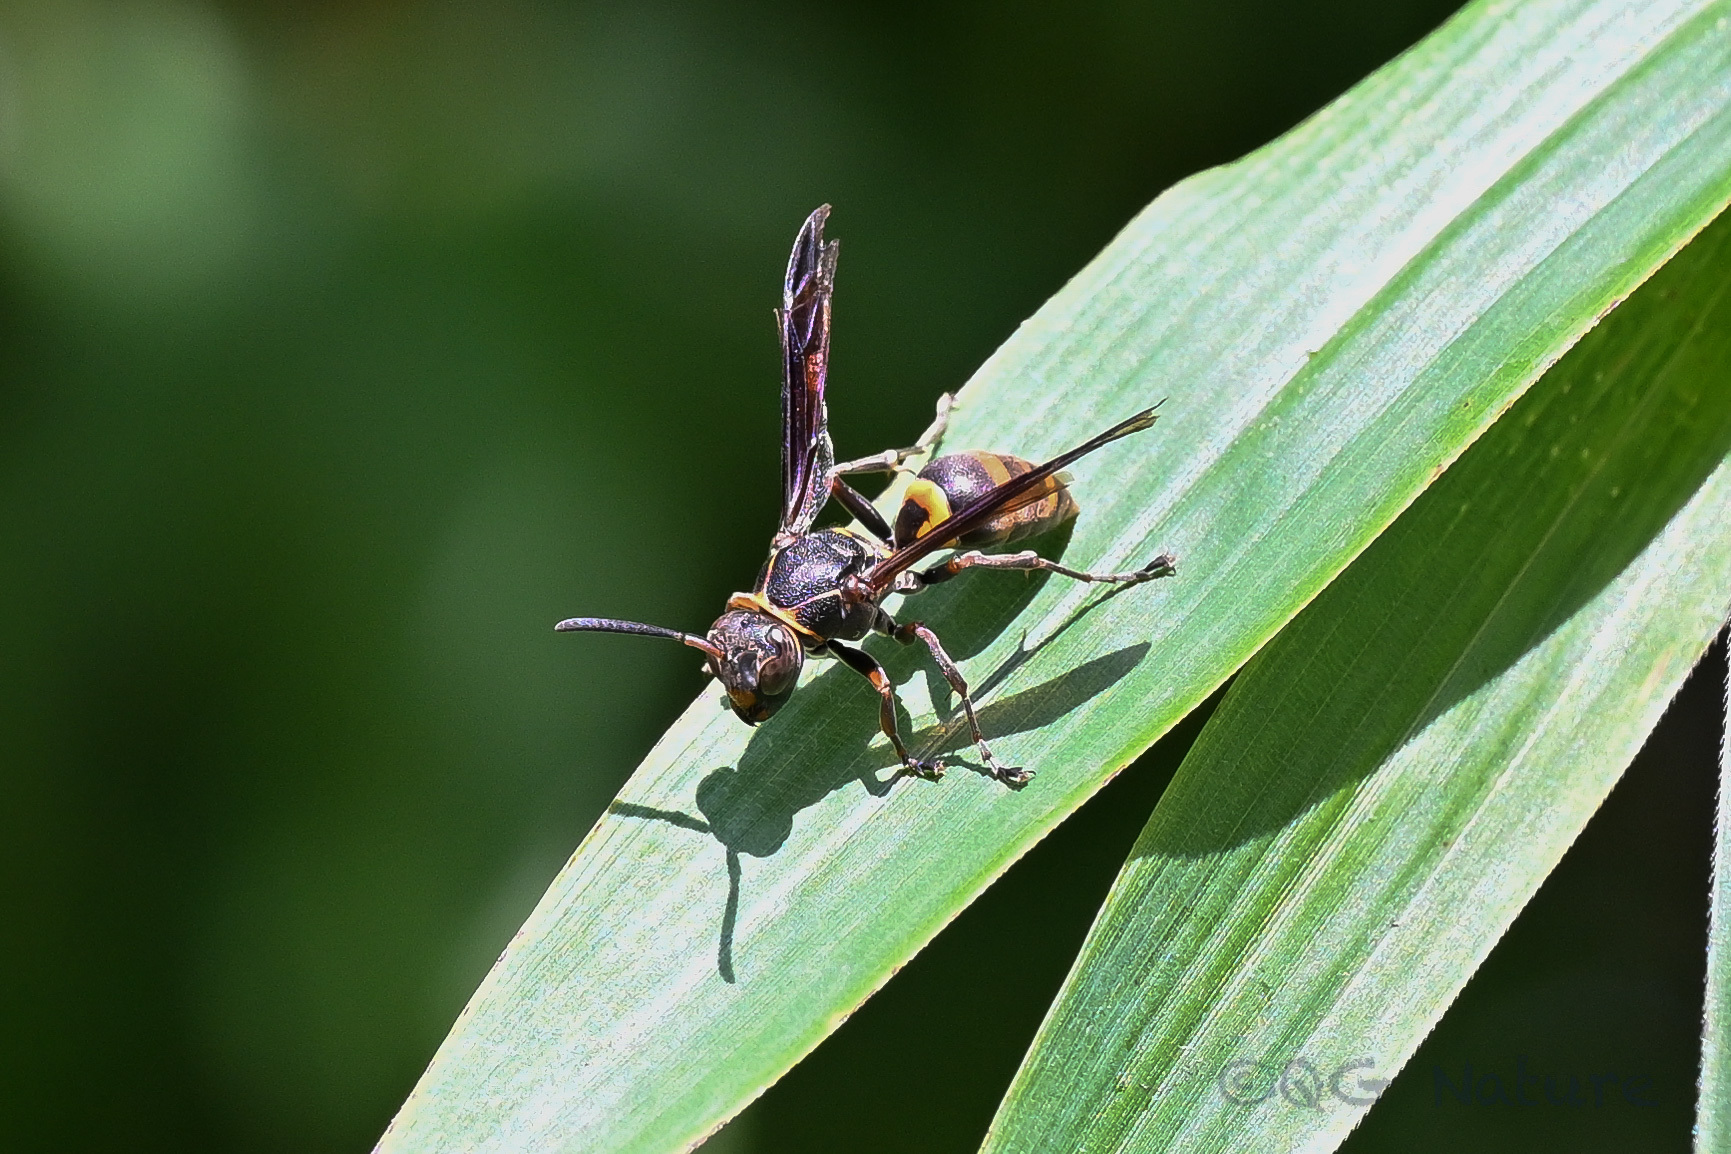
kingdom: Animalia
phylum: Arthropoda
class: Insecta
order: Hymenoptera
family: Eumenidae
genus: Polistes
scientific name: Polistes snelleni
